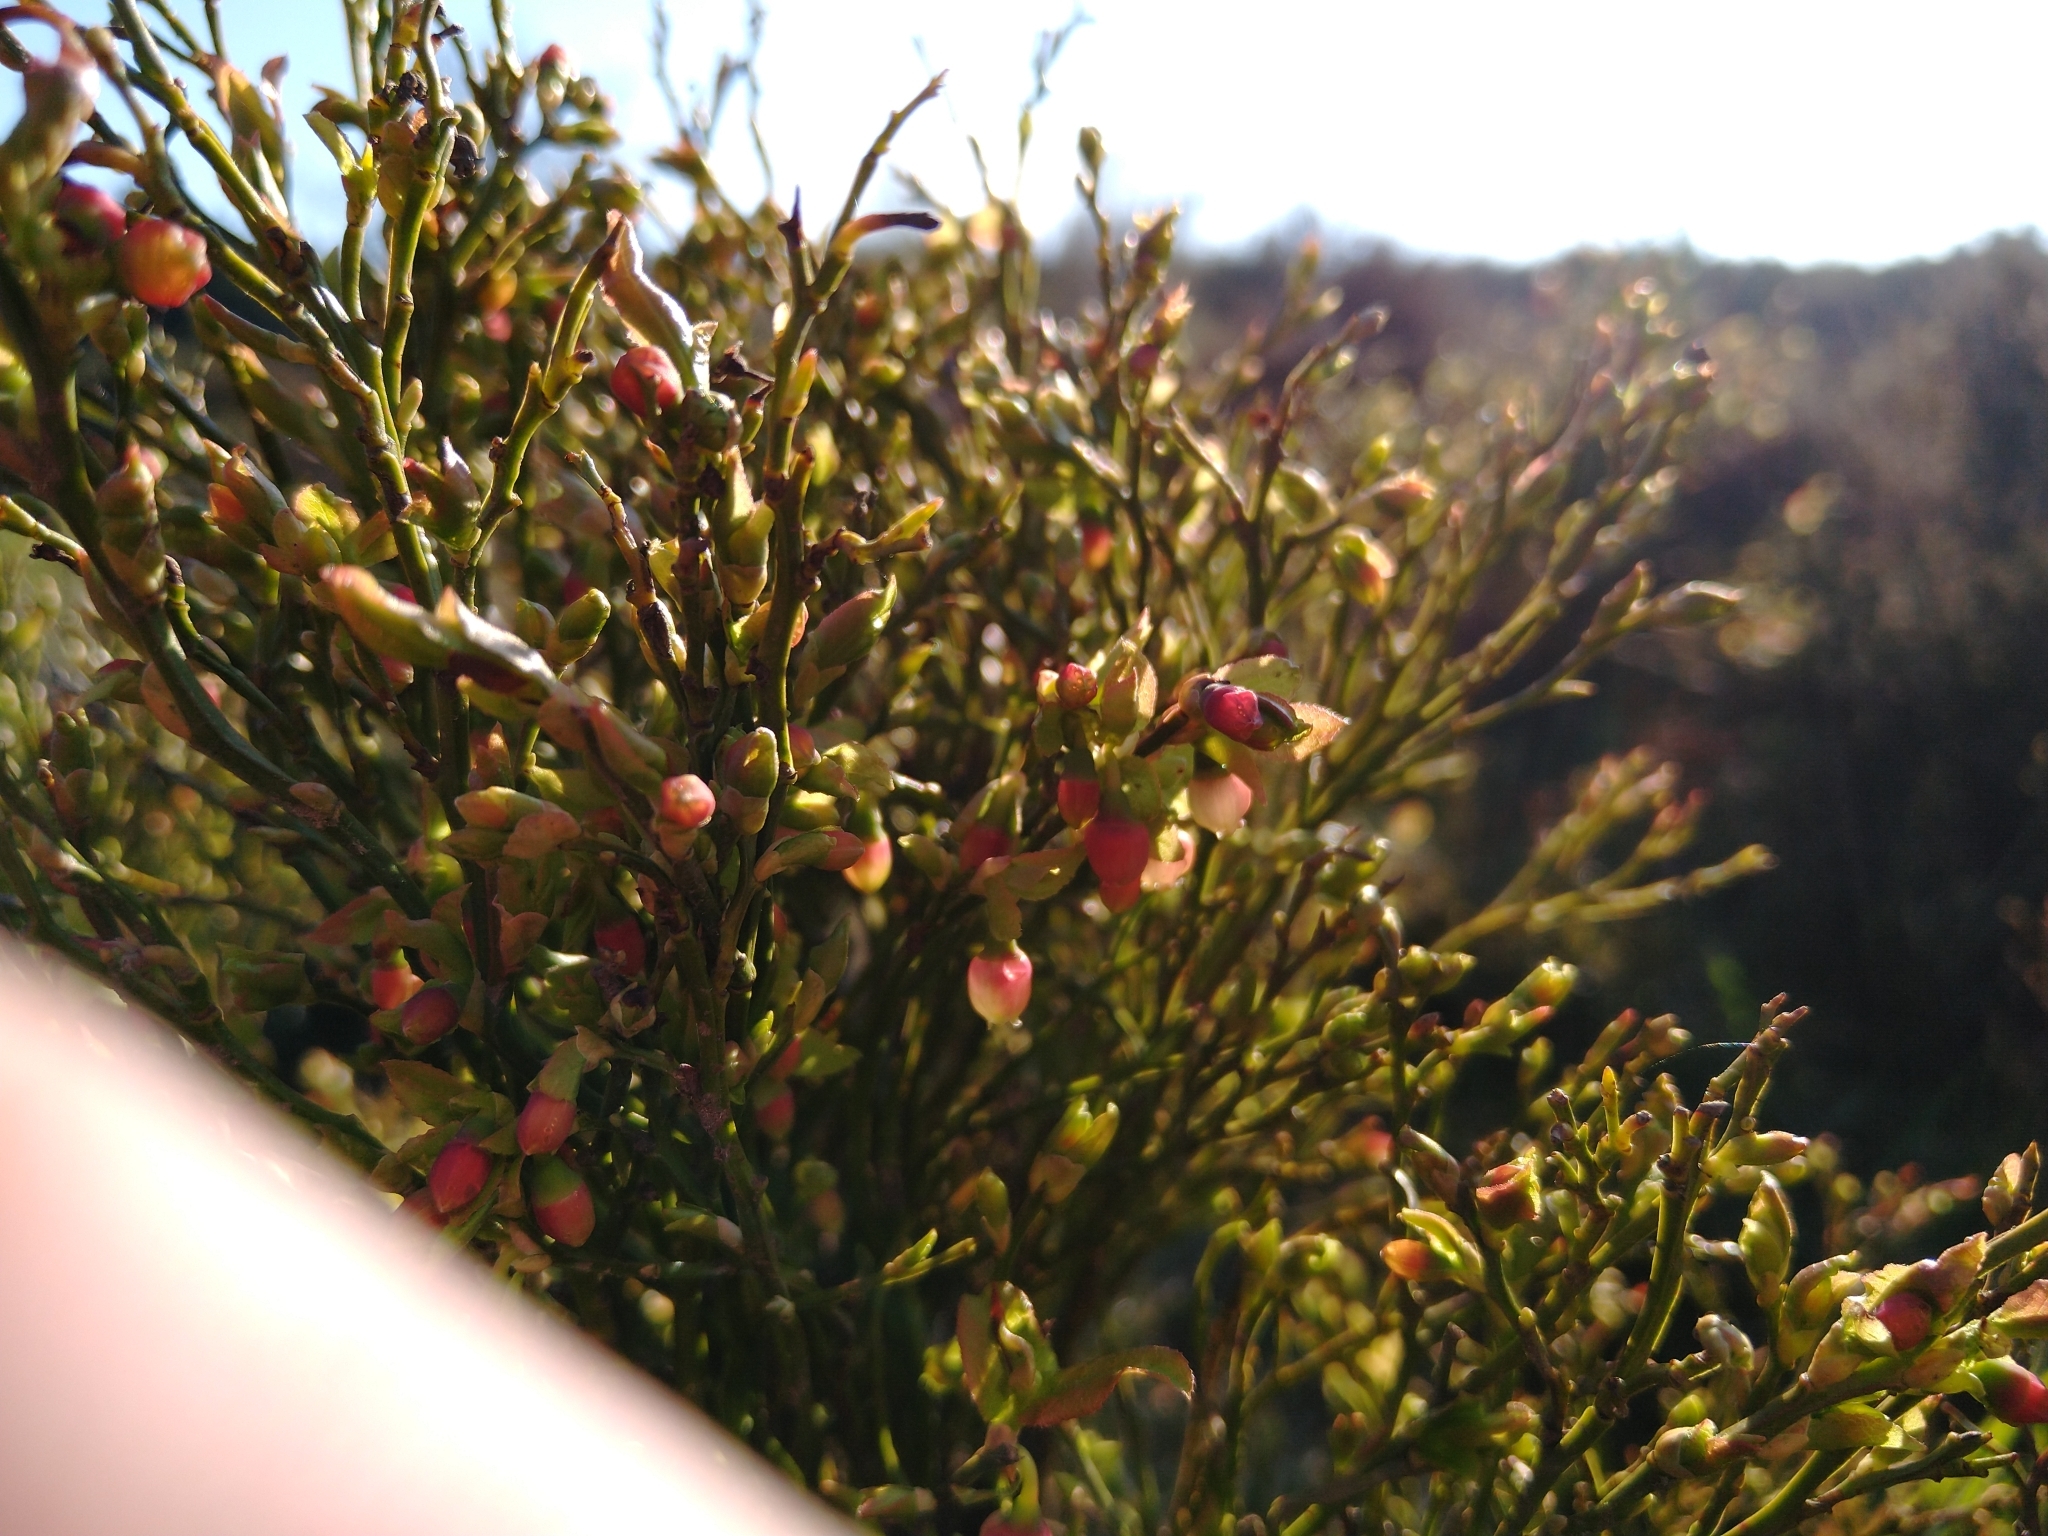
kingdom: Plantae
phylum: Tracheophyta
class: Magnoliopsida
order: Ericales
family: Ericaceae
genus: Vaccinium
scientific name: Vaccinium myrtillus
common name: Bilberry
